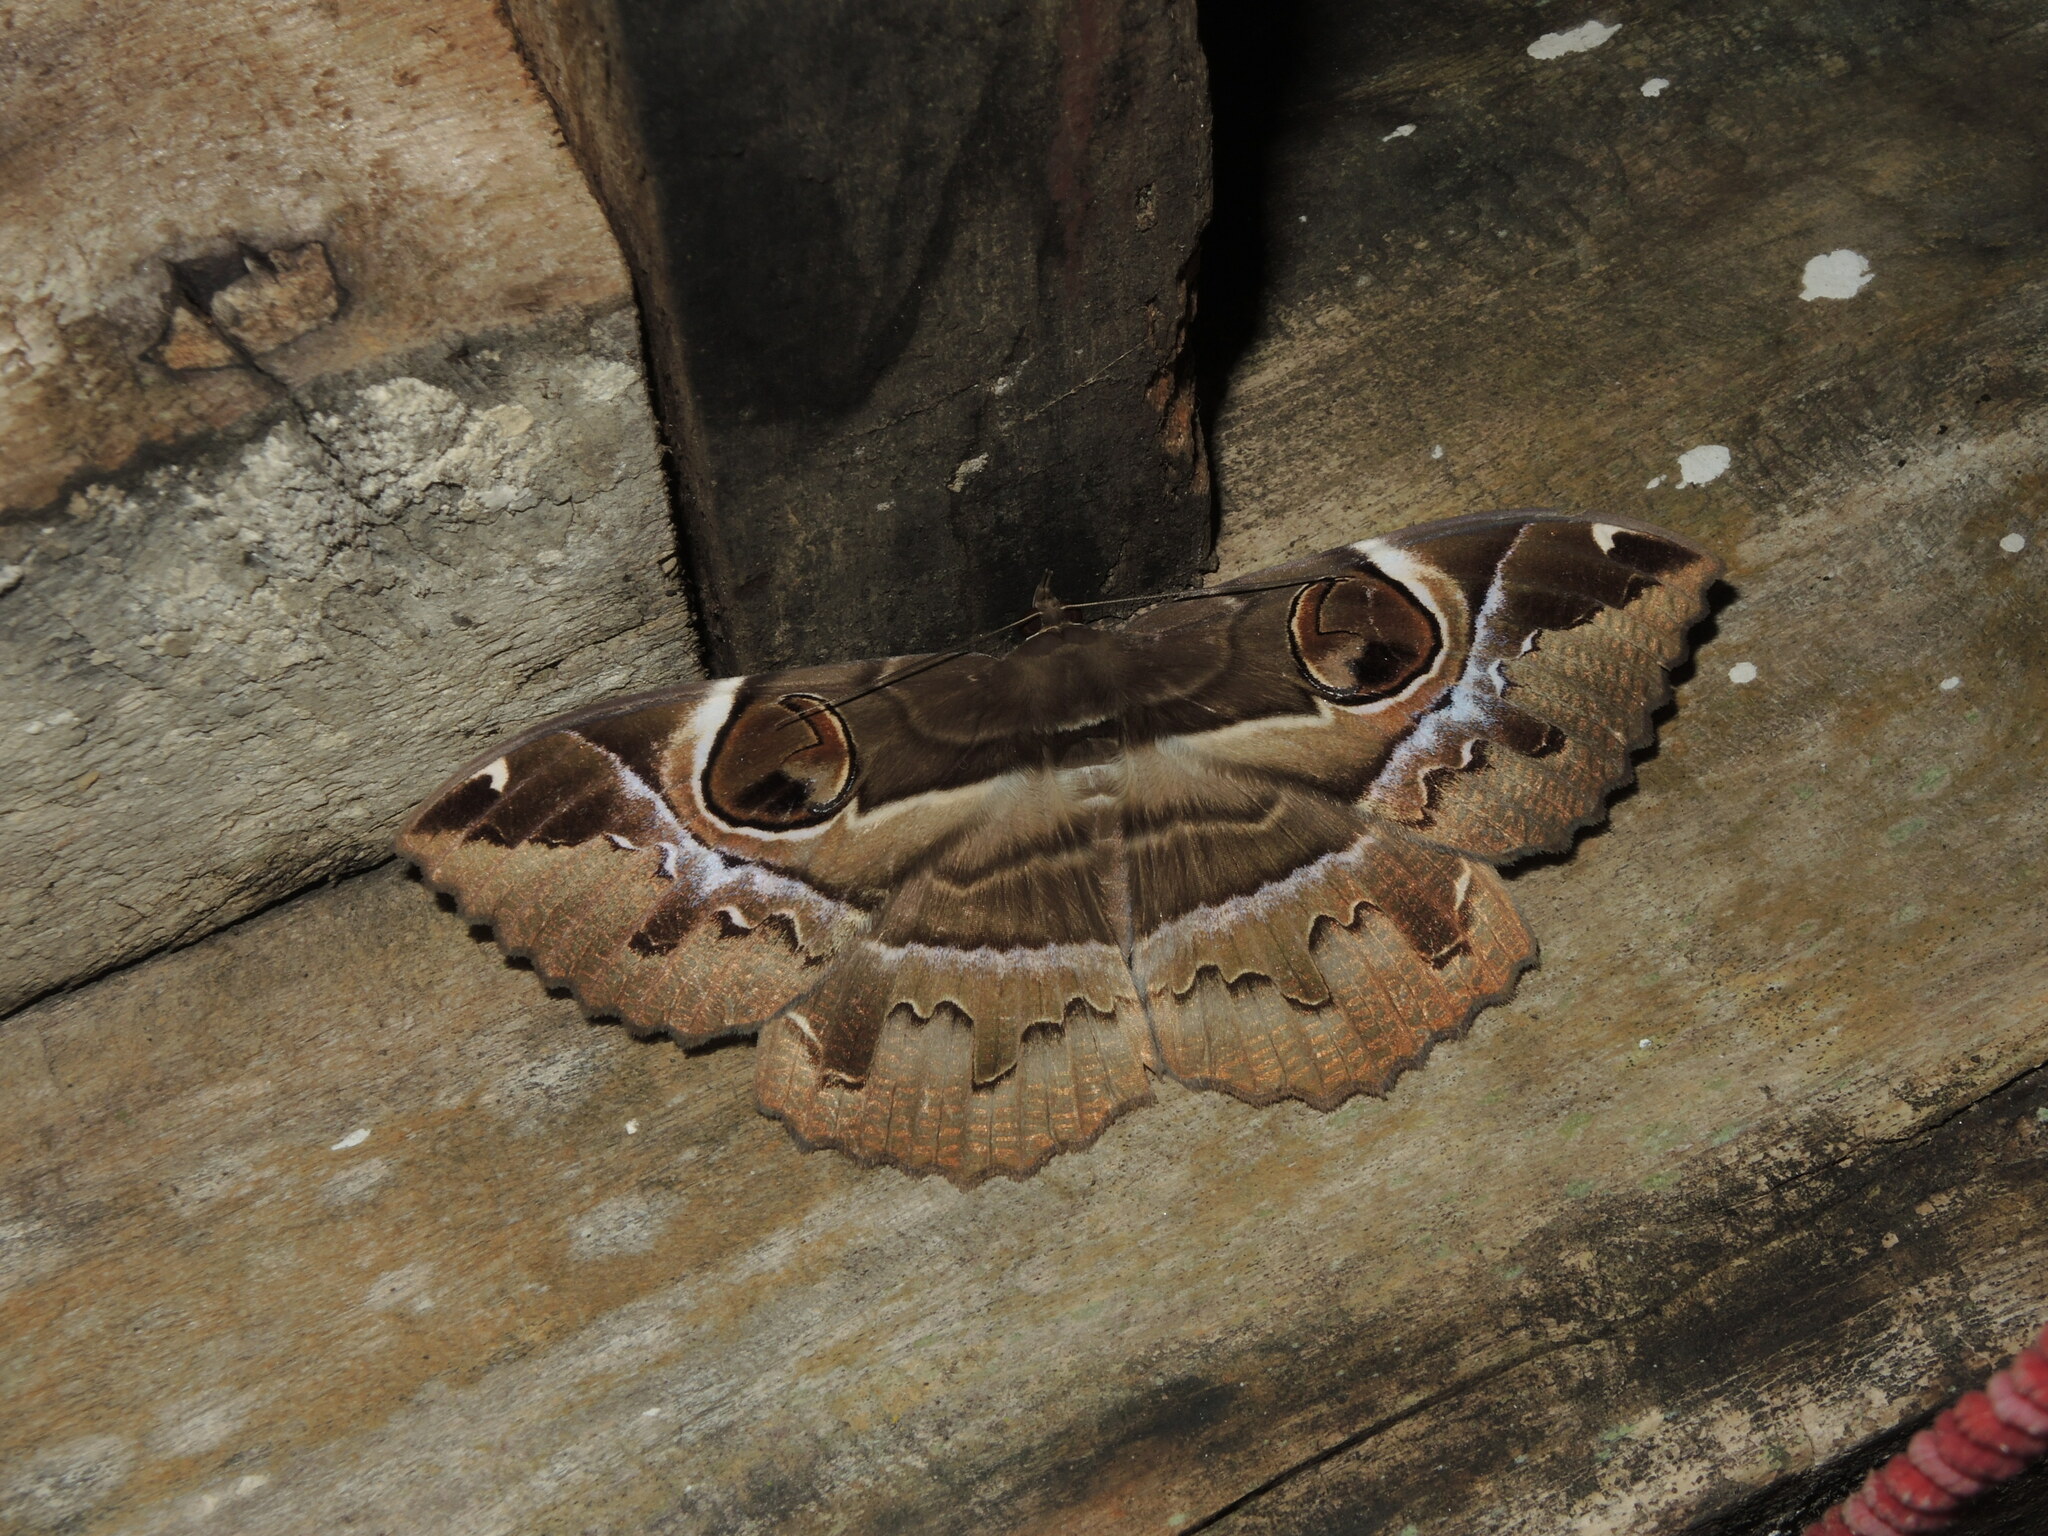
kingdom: Animalia
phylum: Arthropoda
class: Insecta
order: Lepidoptera
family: Erebidae
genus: Erebus
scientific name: Erebus ephesperis
